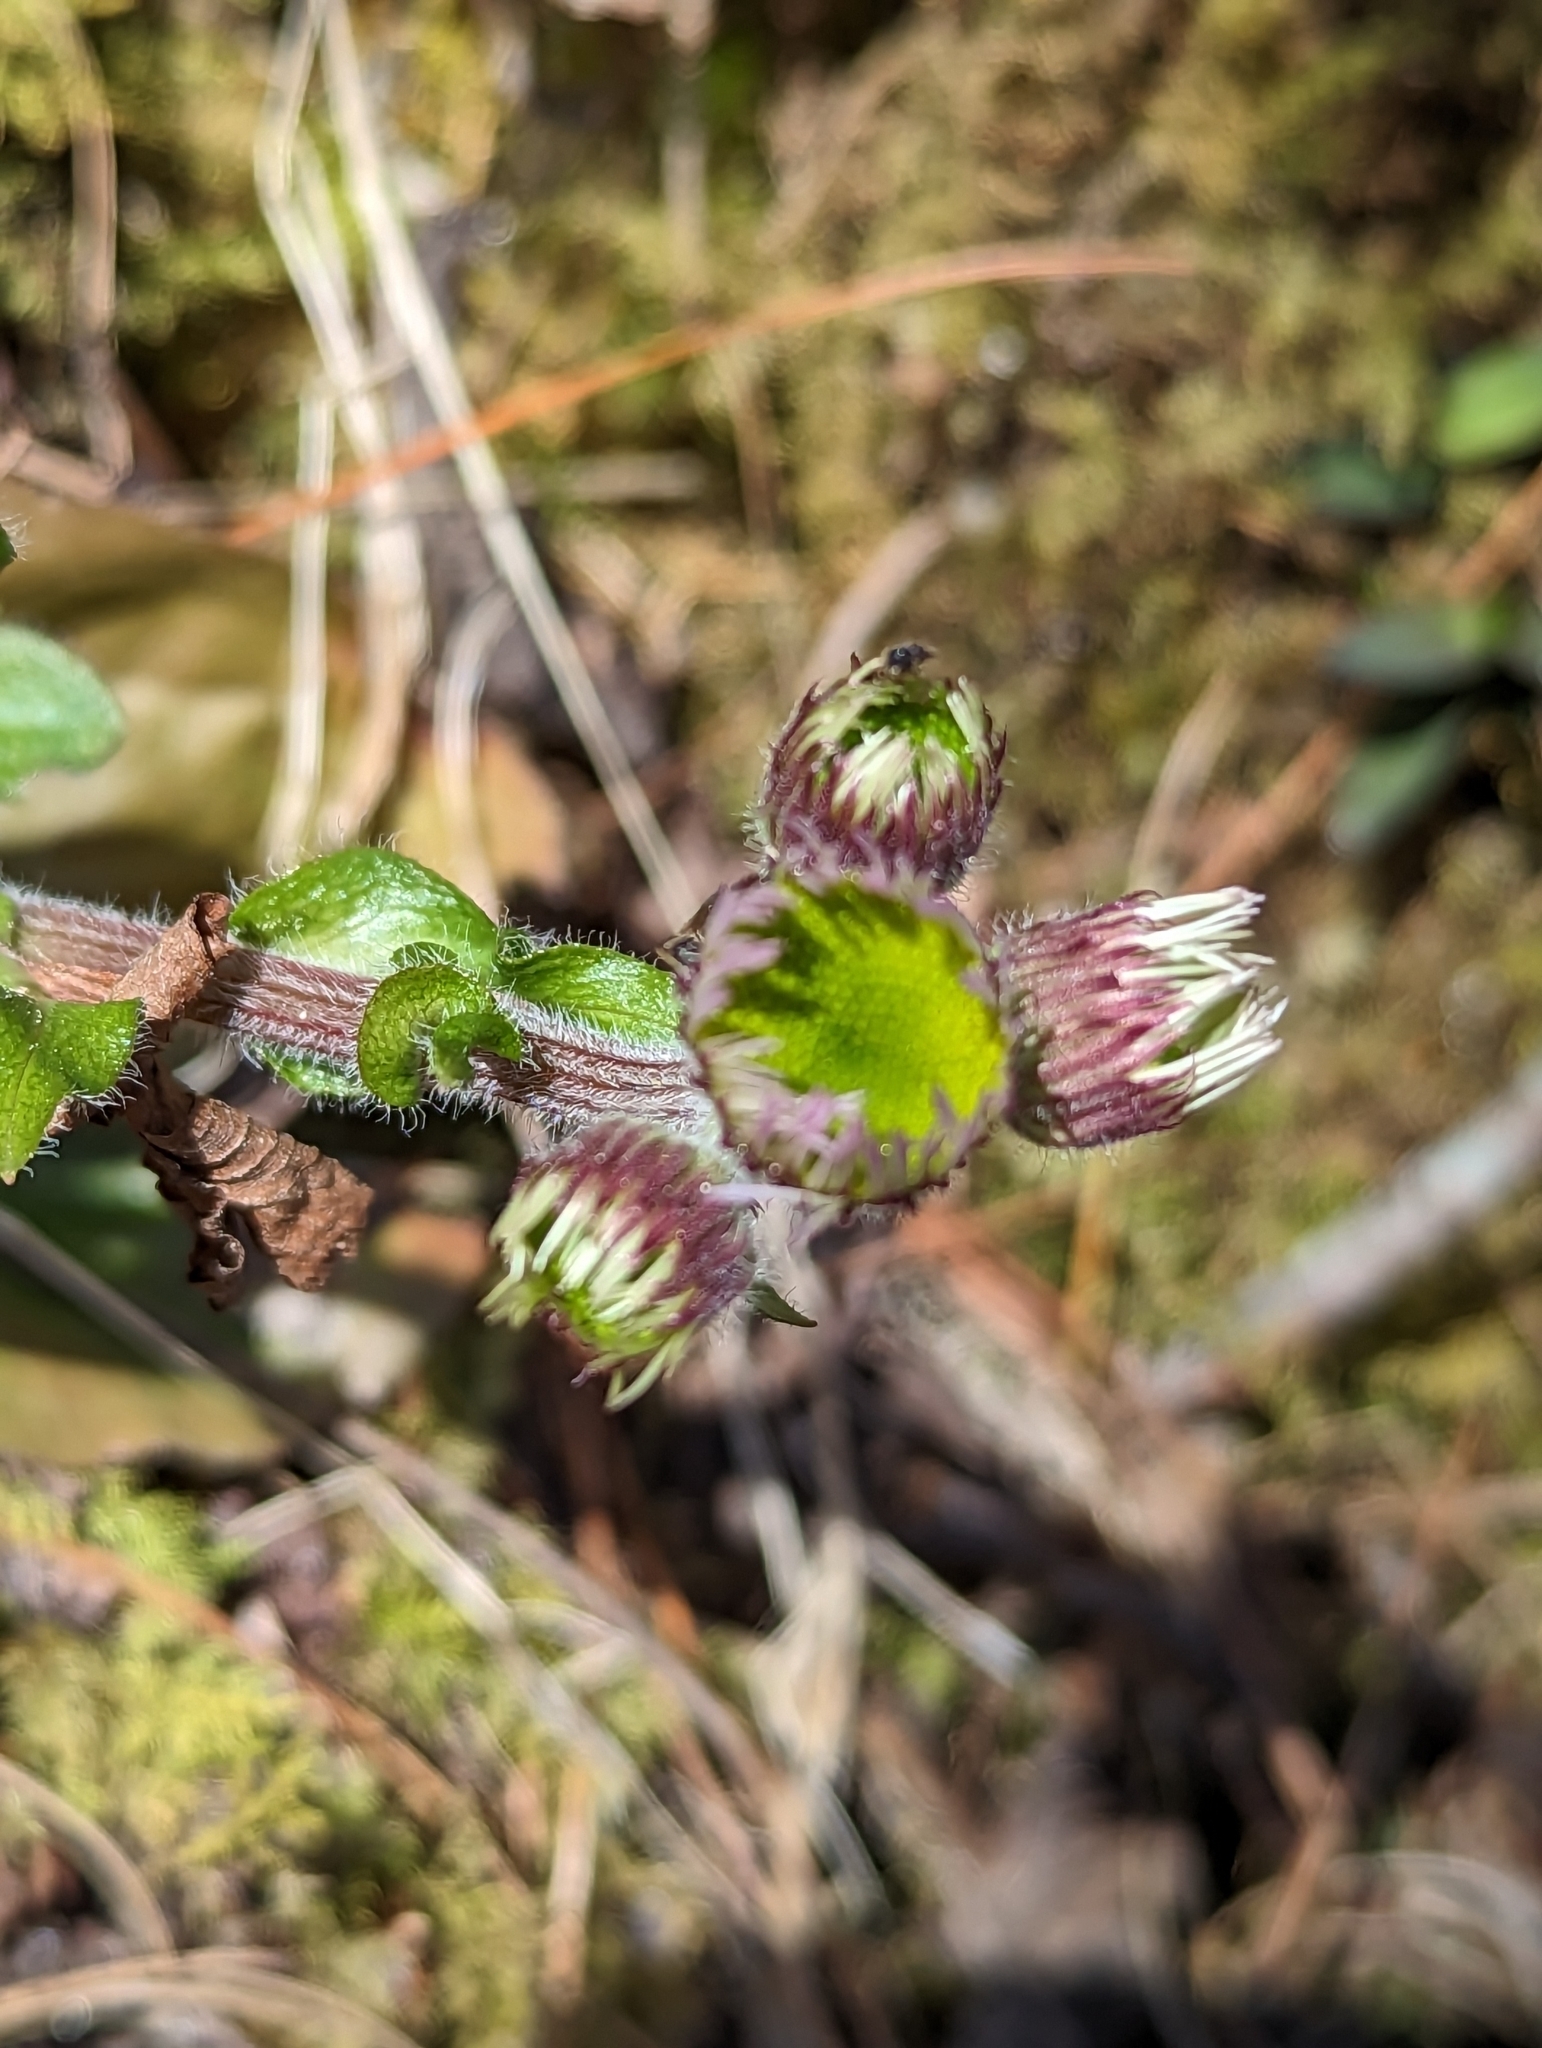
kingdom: Plantae
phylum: Tracheophyta
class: Magnoliopsida
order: Asterales
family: Asteraceae
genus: Erigeron
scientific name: Erigeron pulchellus
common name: Hairy fleabane
